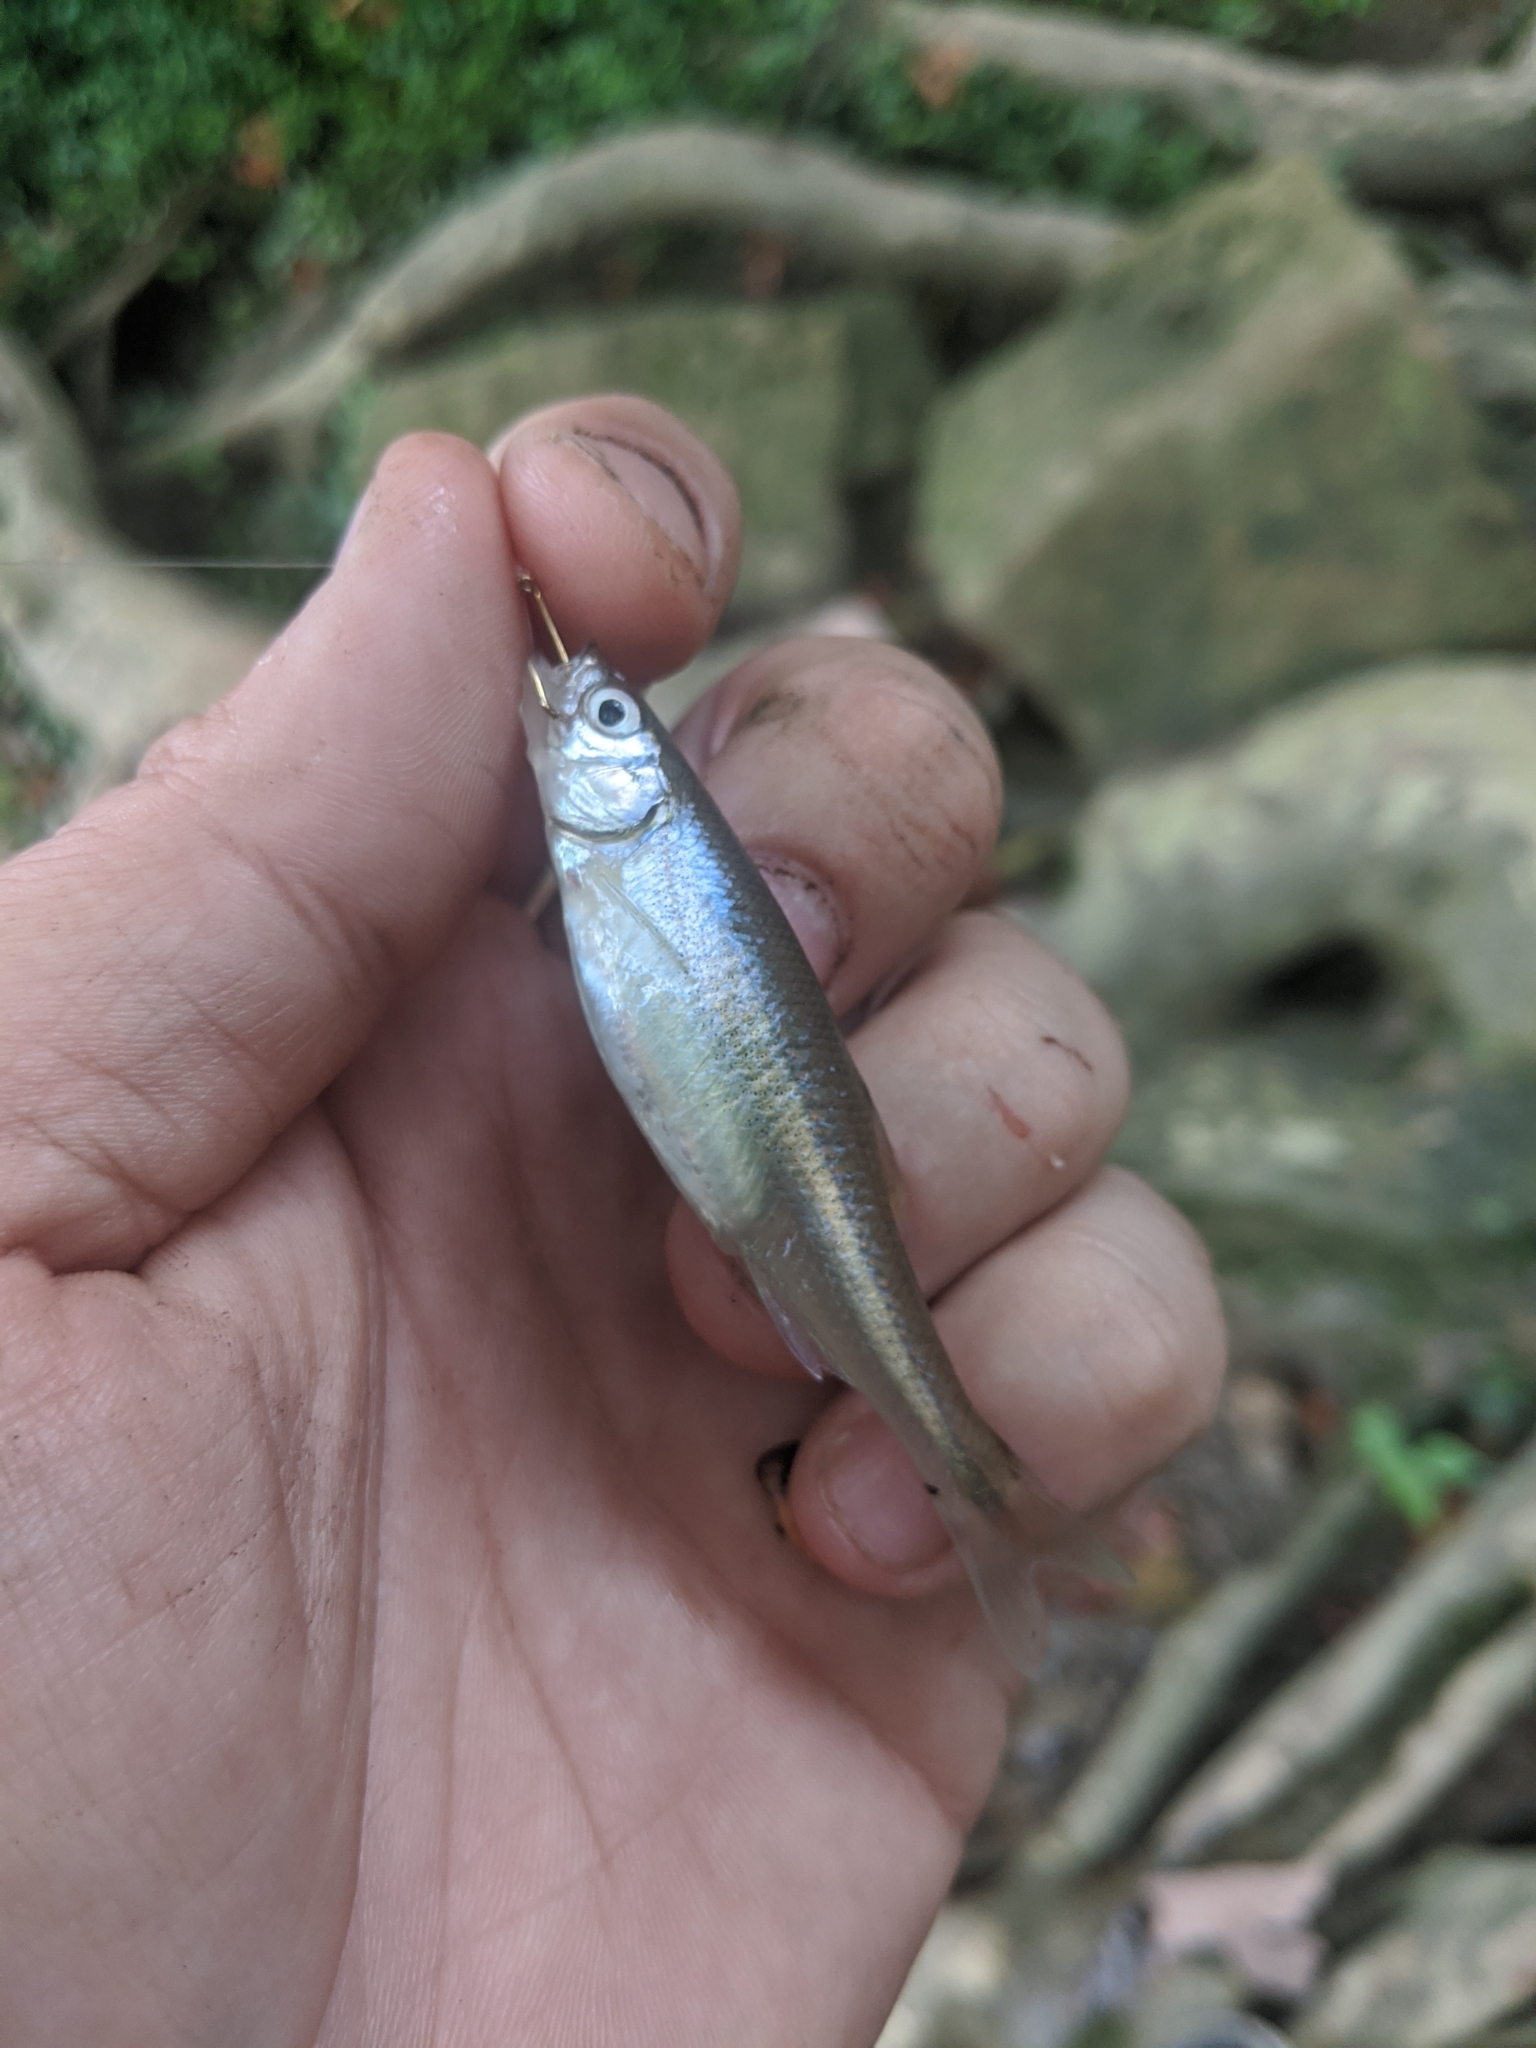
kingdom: Animalia
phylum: Chordata
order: Cypriniformes
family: Cyprinidae
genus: Lythrurus
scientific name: Lythrurus fasciolaris
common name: Scarlet shiner
